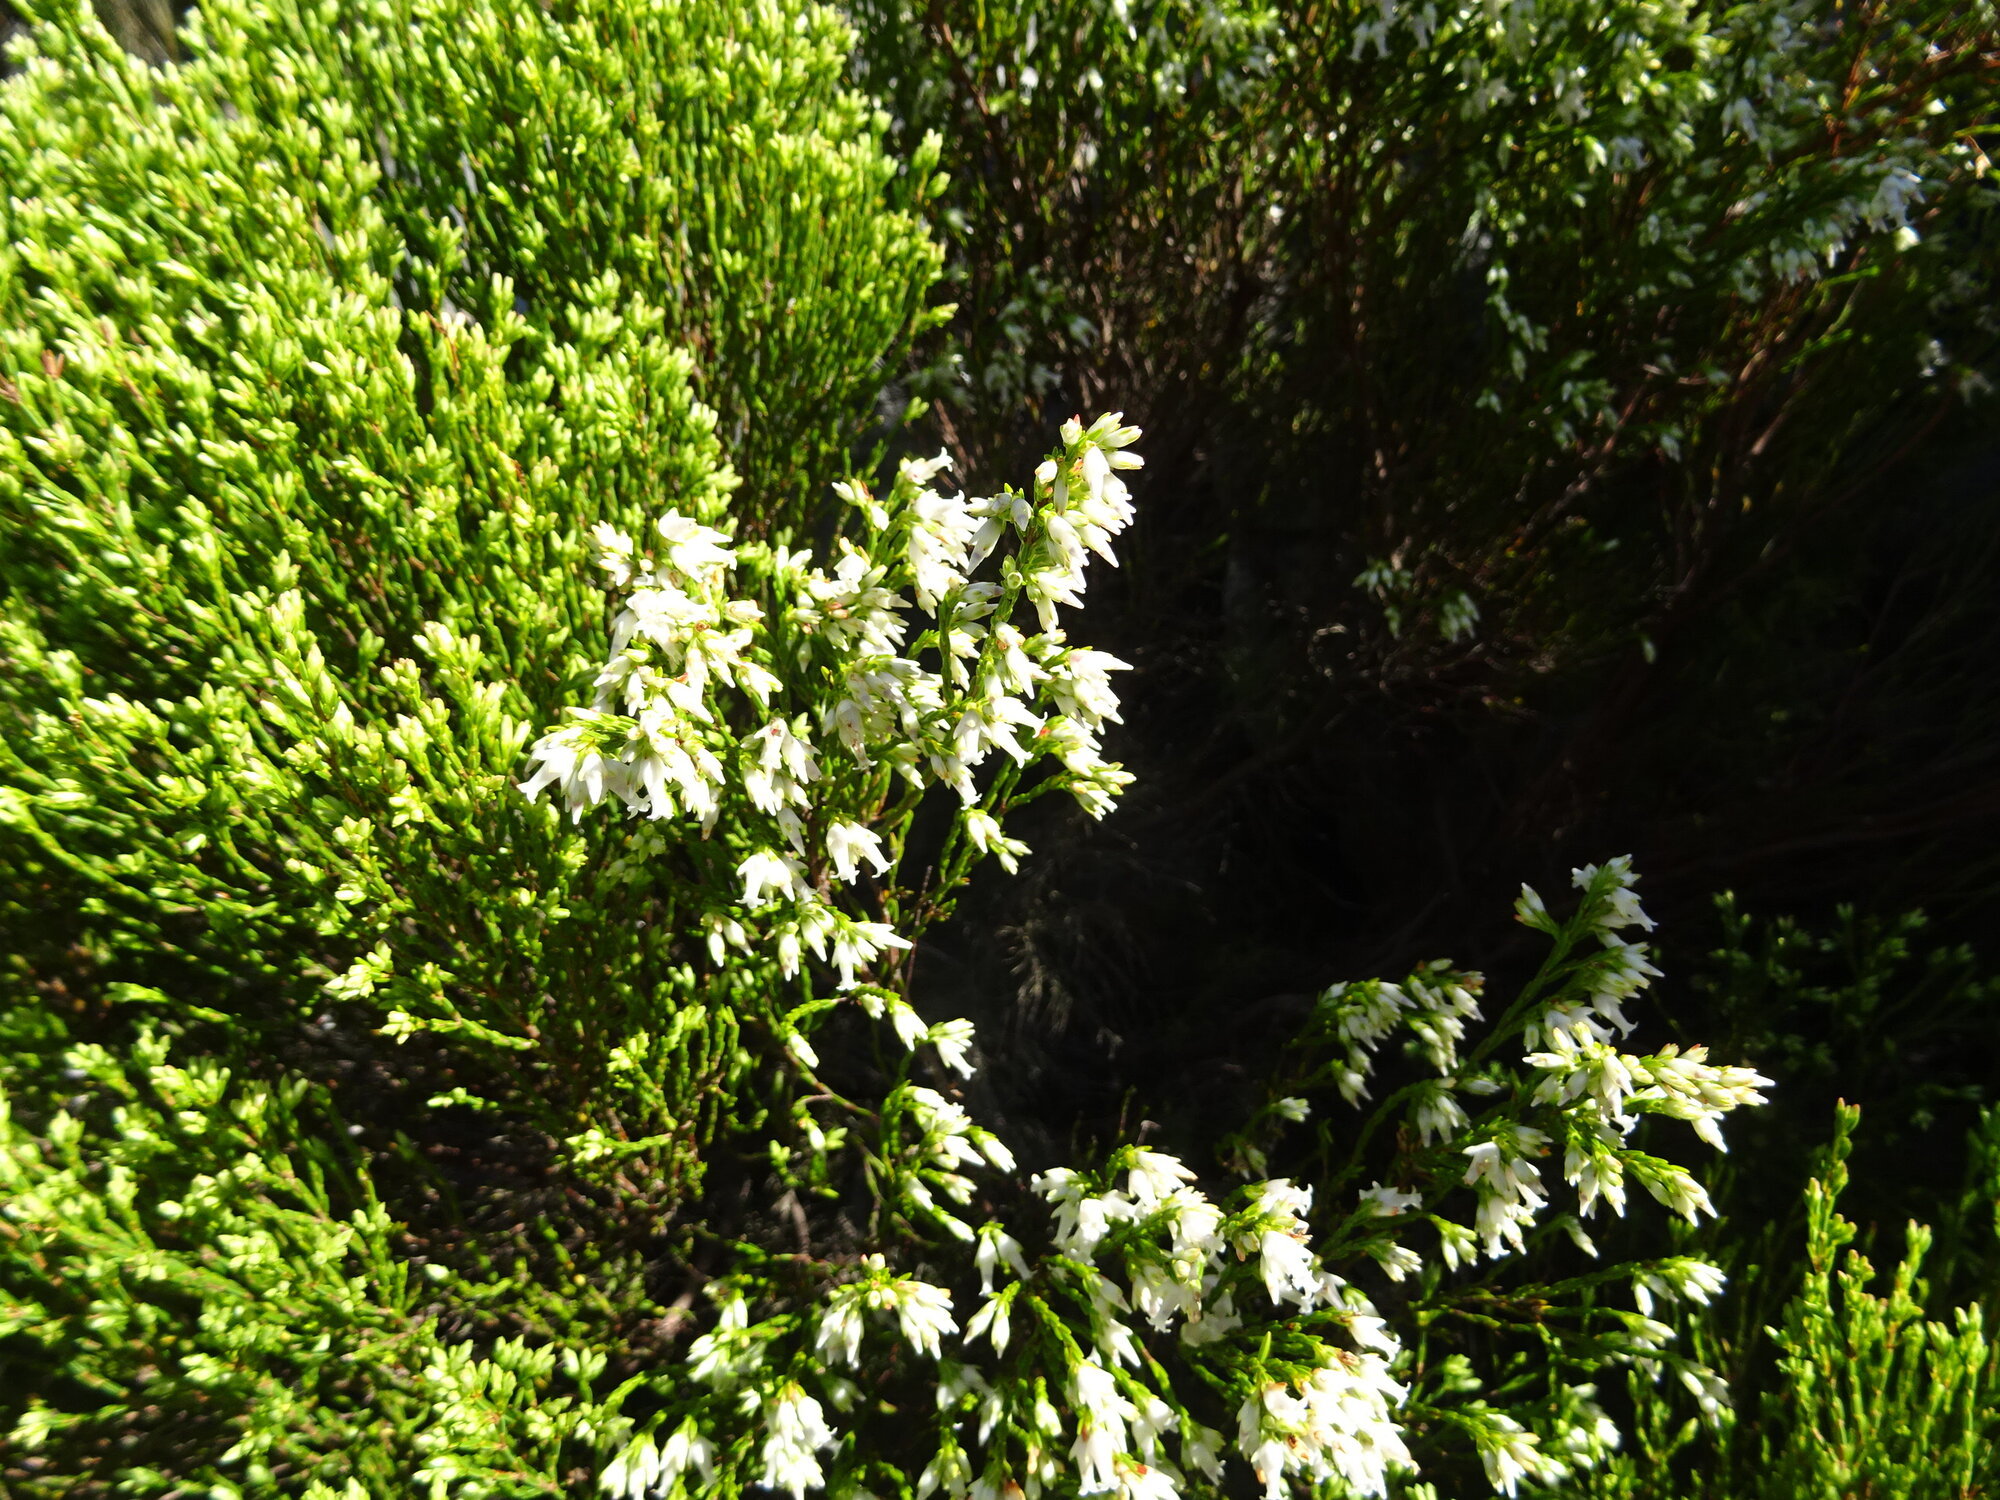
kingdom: Plantae
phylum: Tracheophyta
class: Magnoliopsida
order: Ericales
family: Ericaceae
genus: Erica
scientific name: Erica lutea
